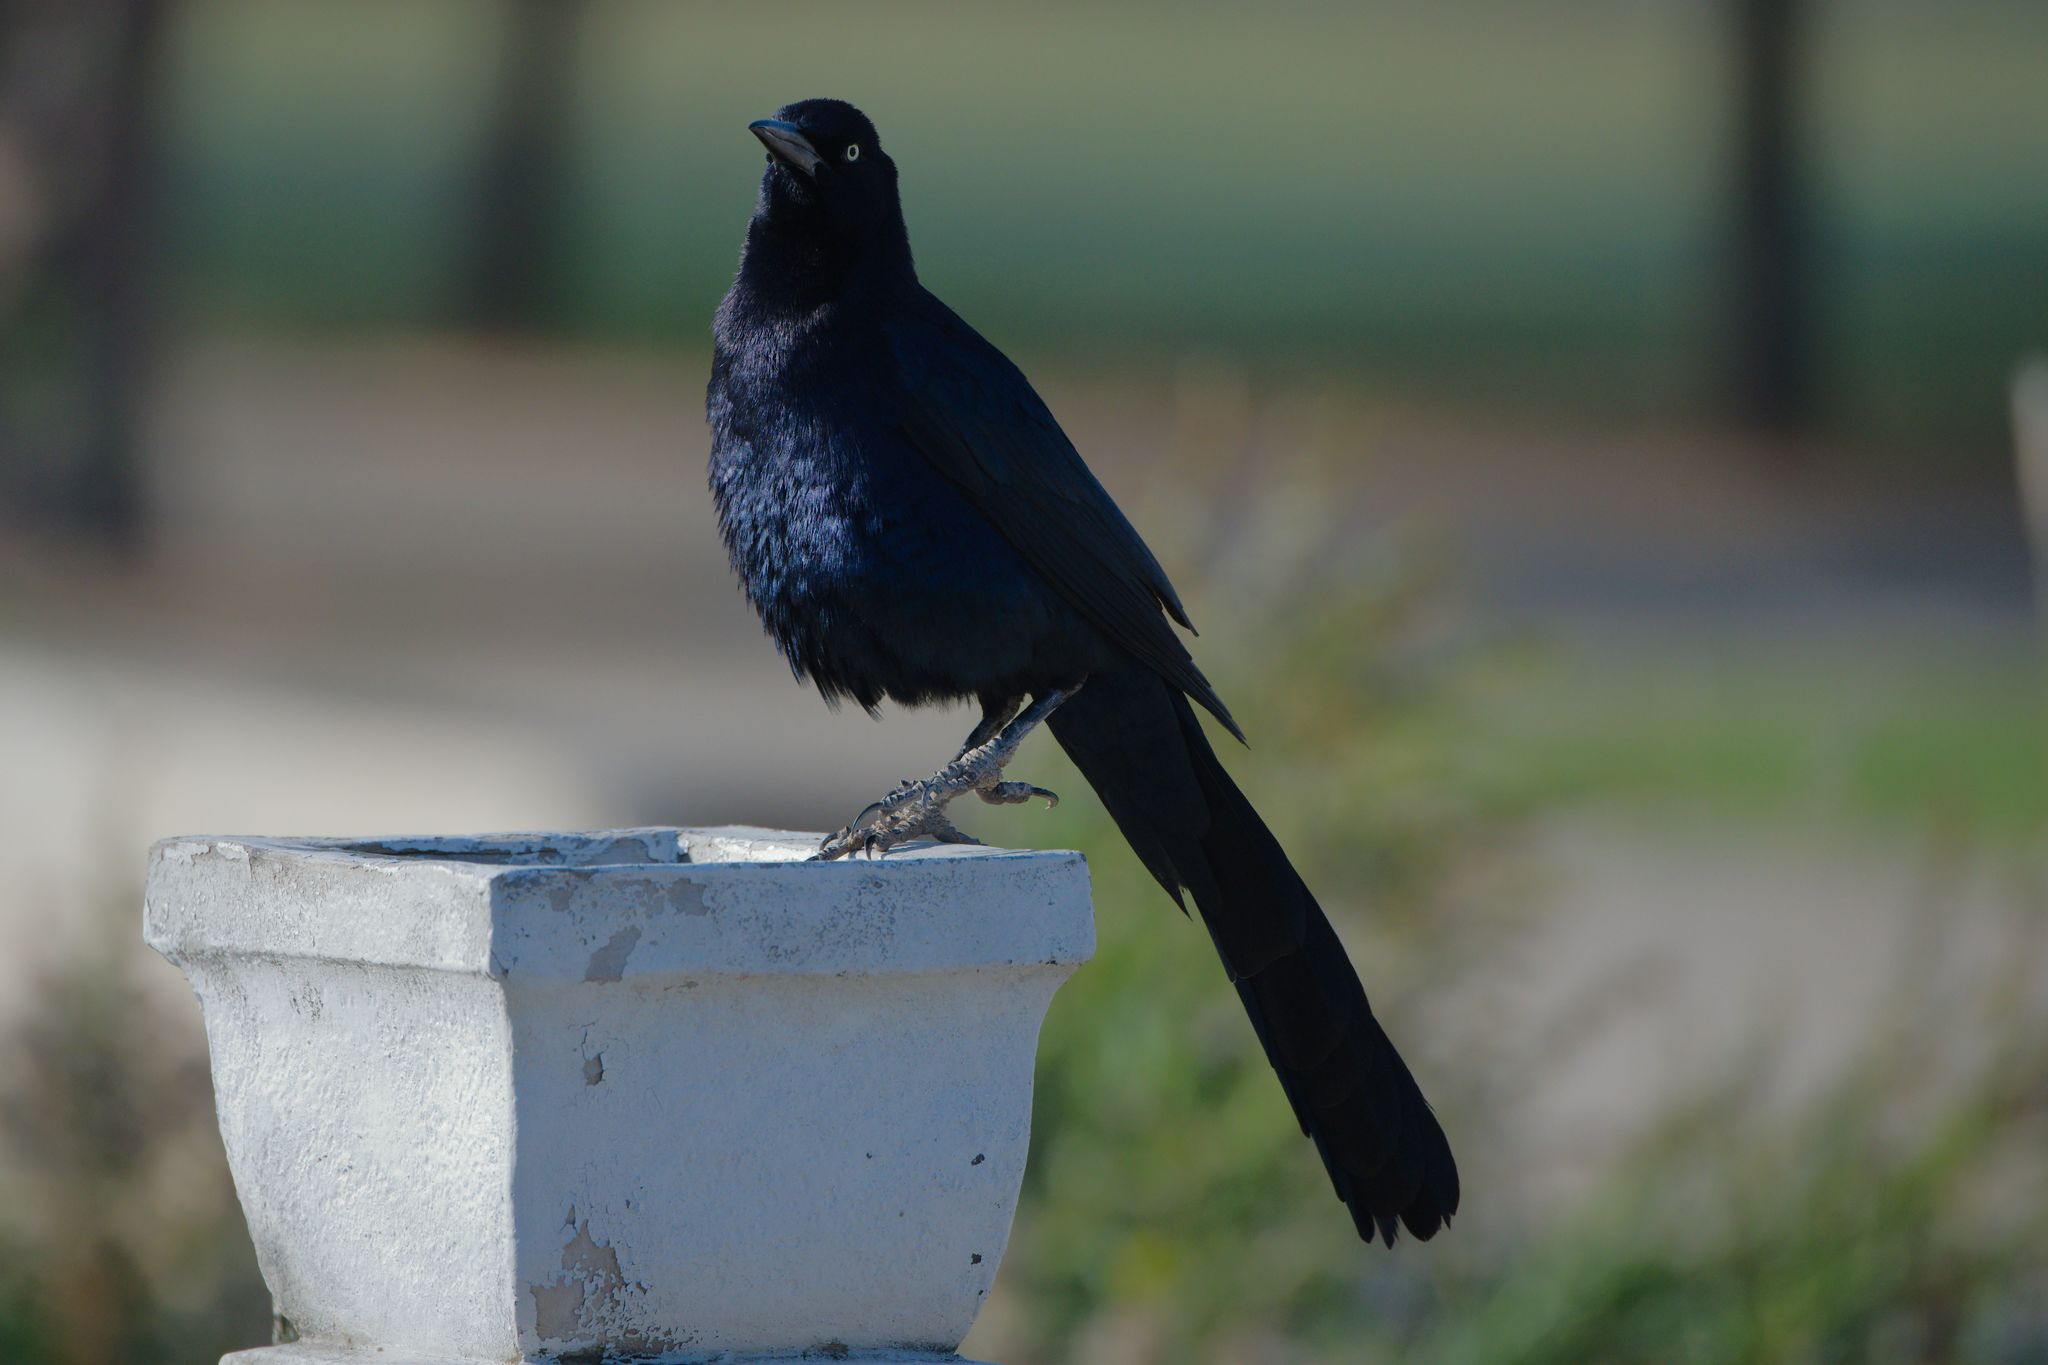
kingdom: Animalia
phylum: Chordata
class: Aves
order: Passeriformes
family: Icteridae
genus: Quiscalus
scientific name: Quiscalus mexicanus
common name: Great-tailed grackle
